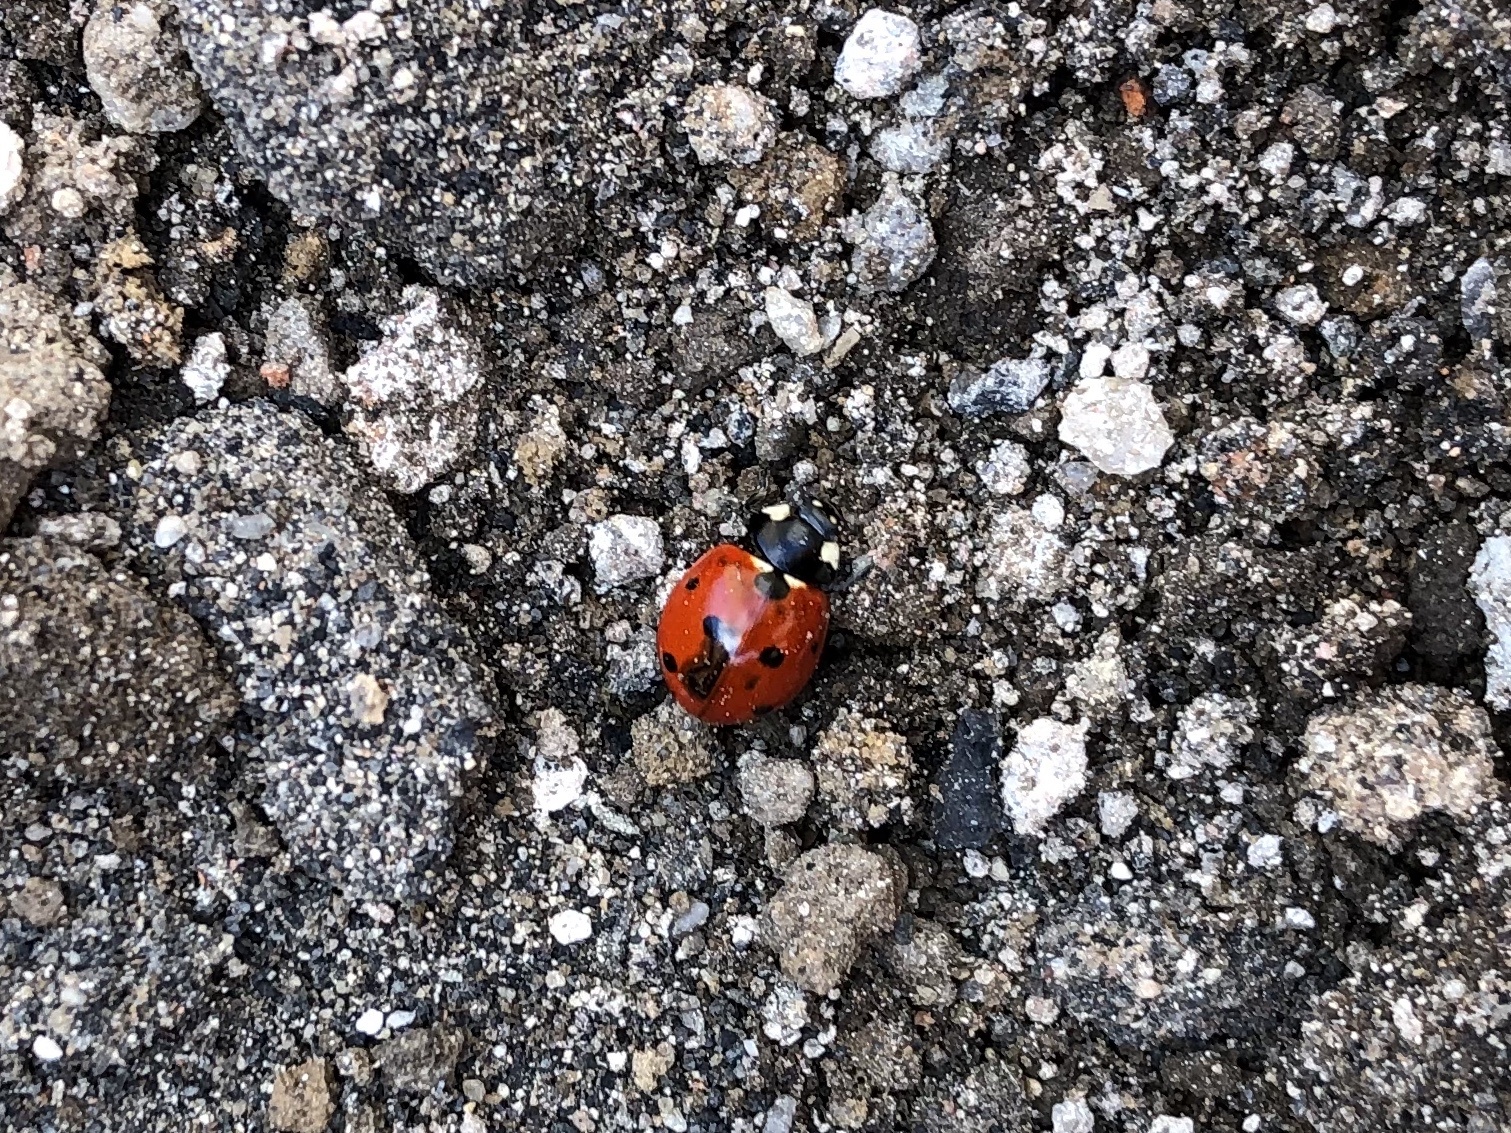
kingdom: Animalia
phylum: Arthropoda
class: Insecta
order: Coleoptera
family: Coccinellidae
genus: Coccinella
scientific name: Coccinella septempunctata
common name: Sevenspotted lady beetle
